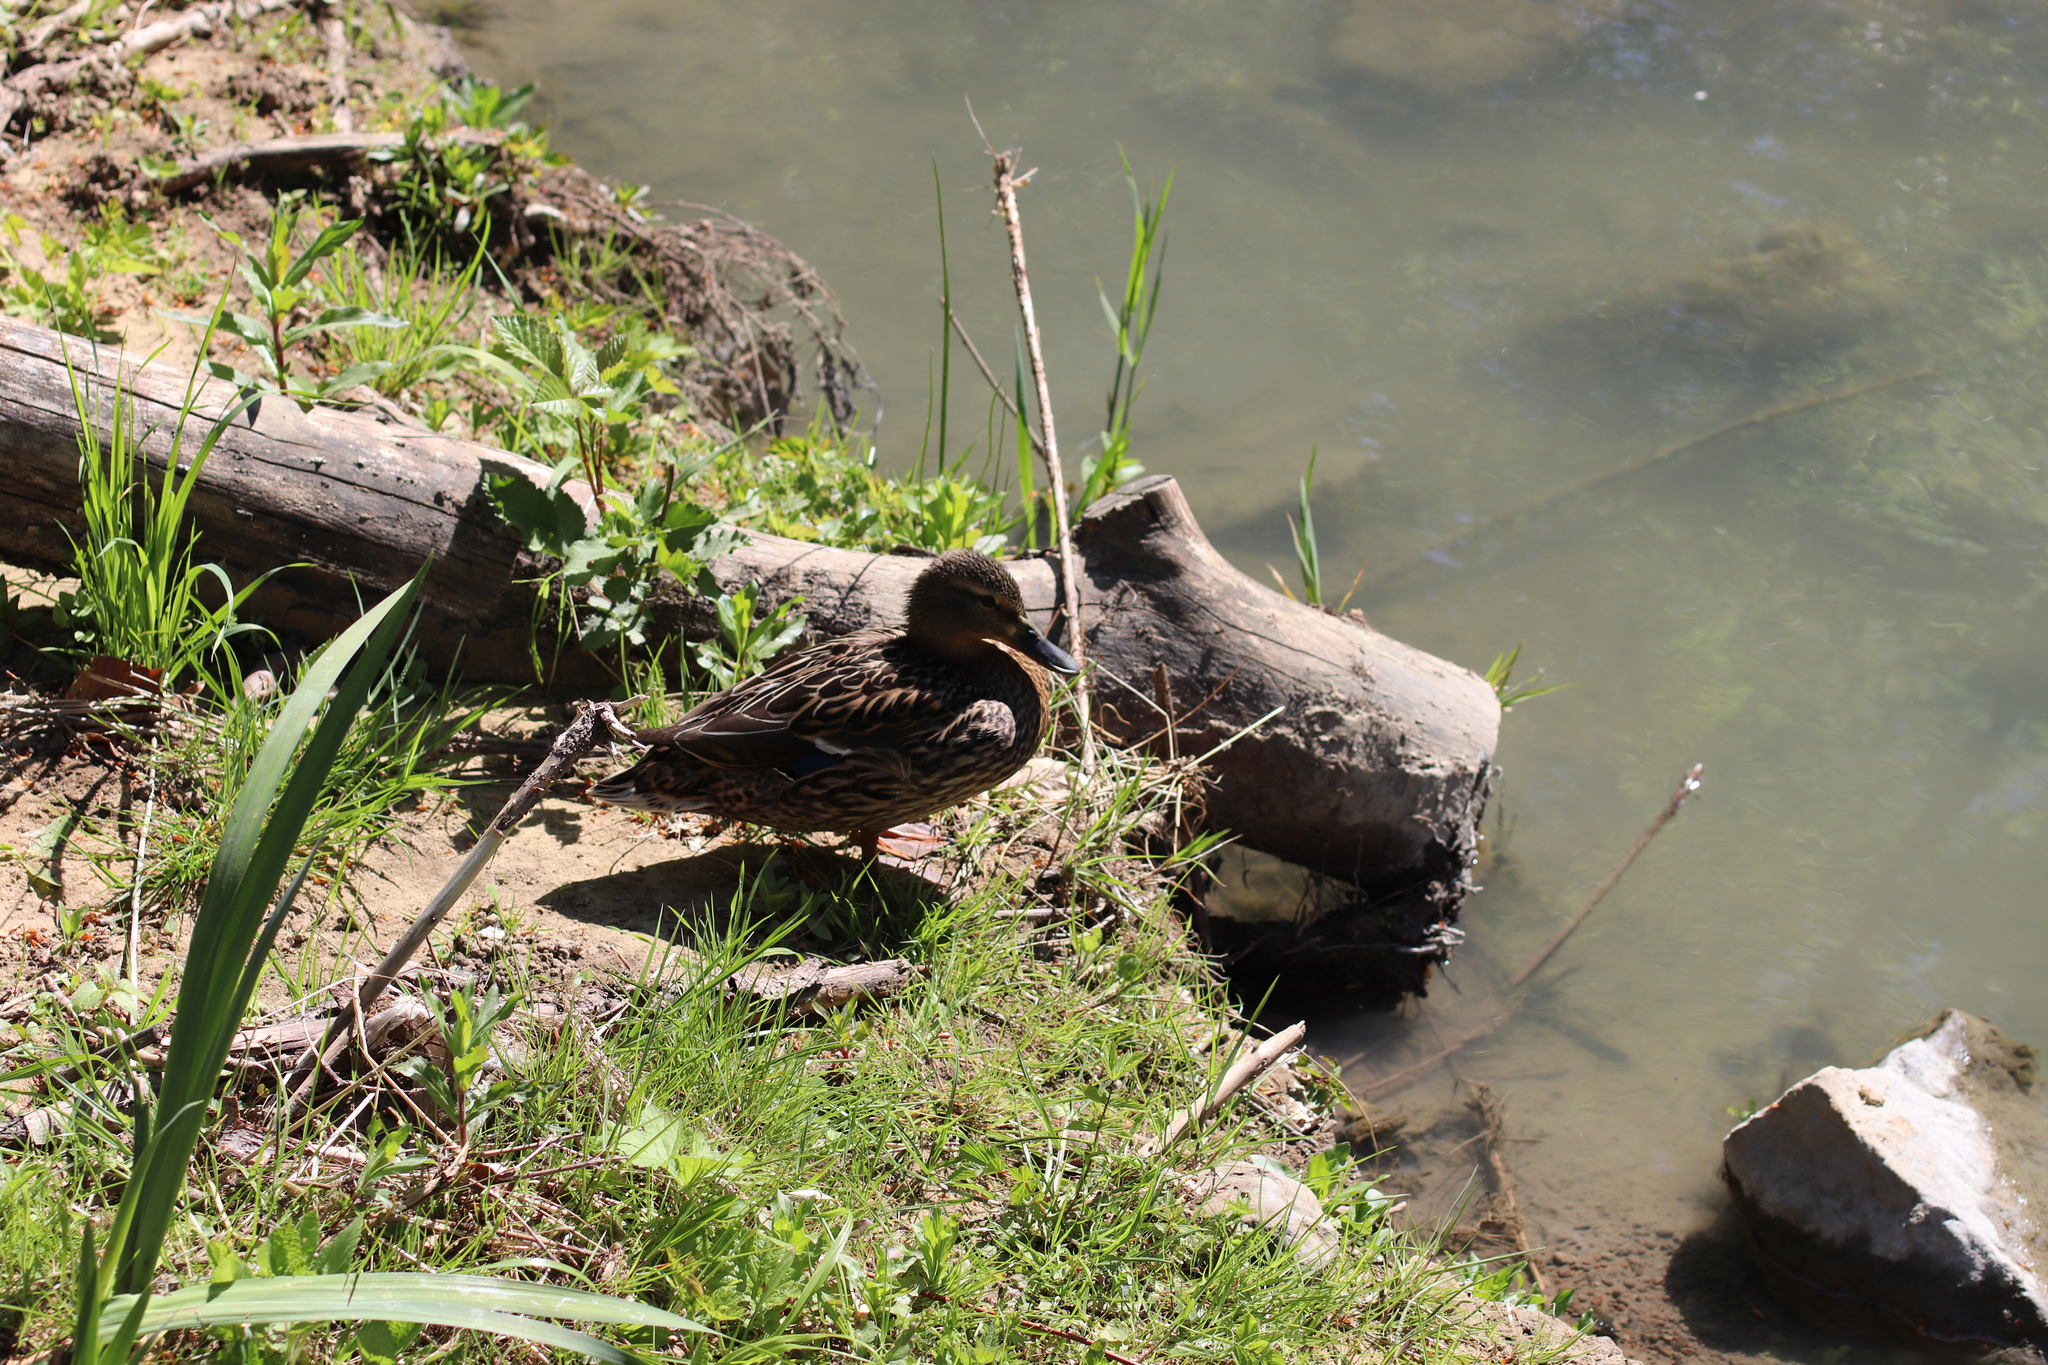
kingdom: Animalia
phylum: Chordata
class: Aves
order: Anseriformes
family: Anatidae
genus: Anas
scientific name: Anas platyrhynchos
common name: Mallard
